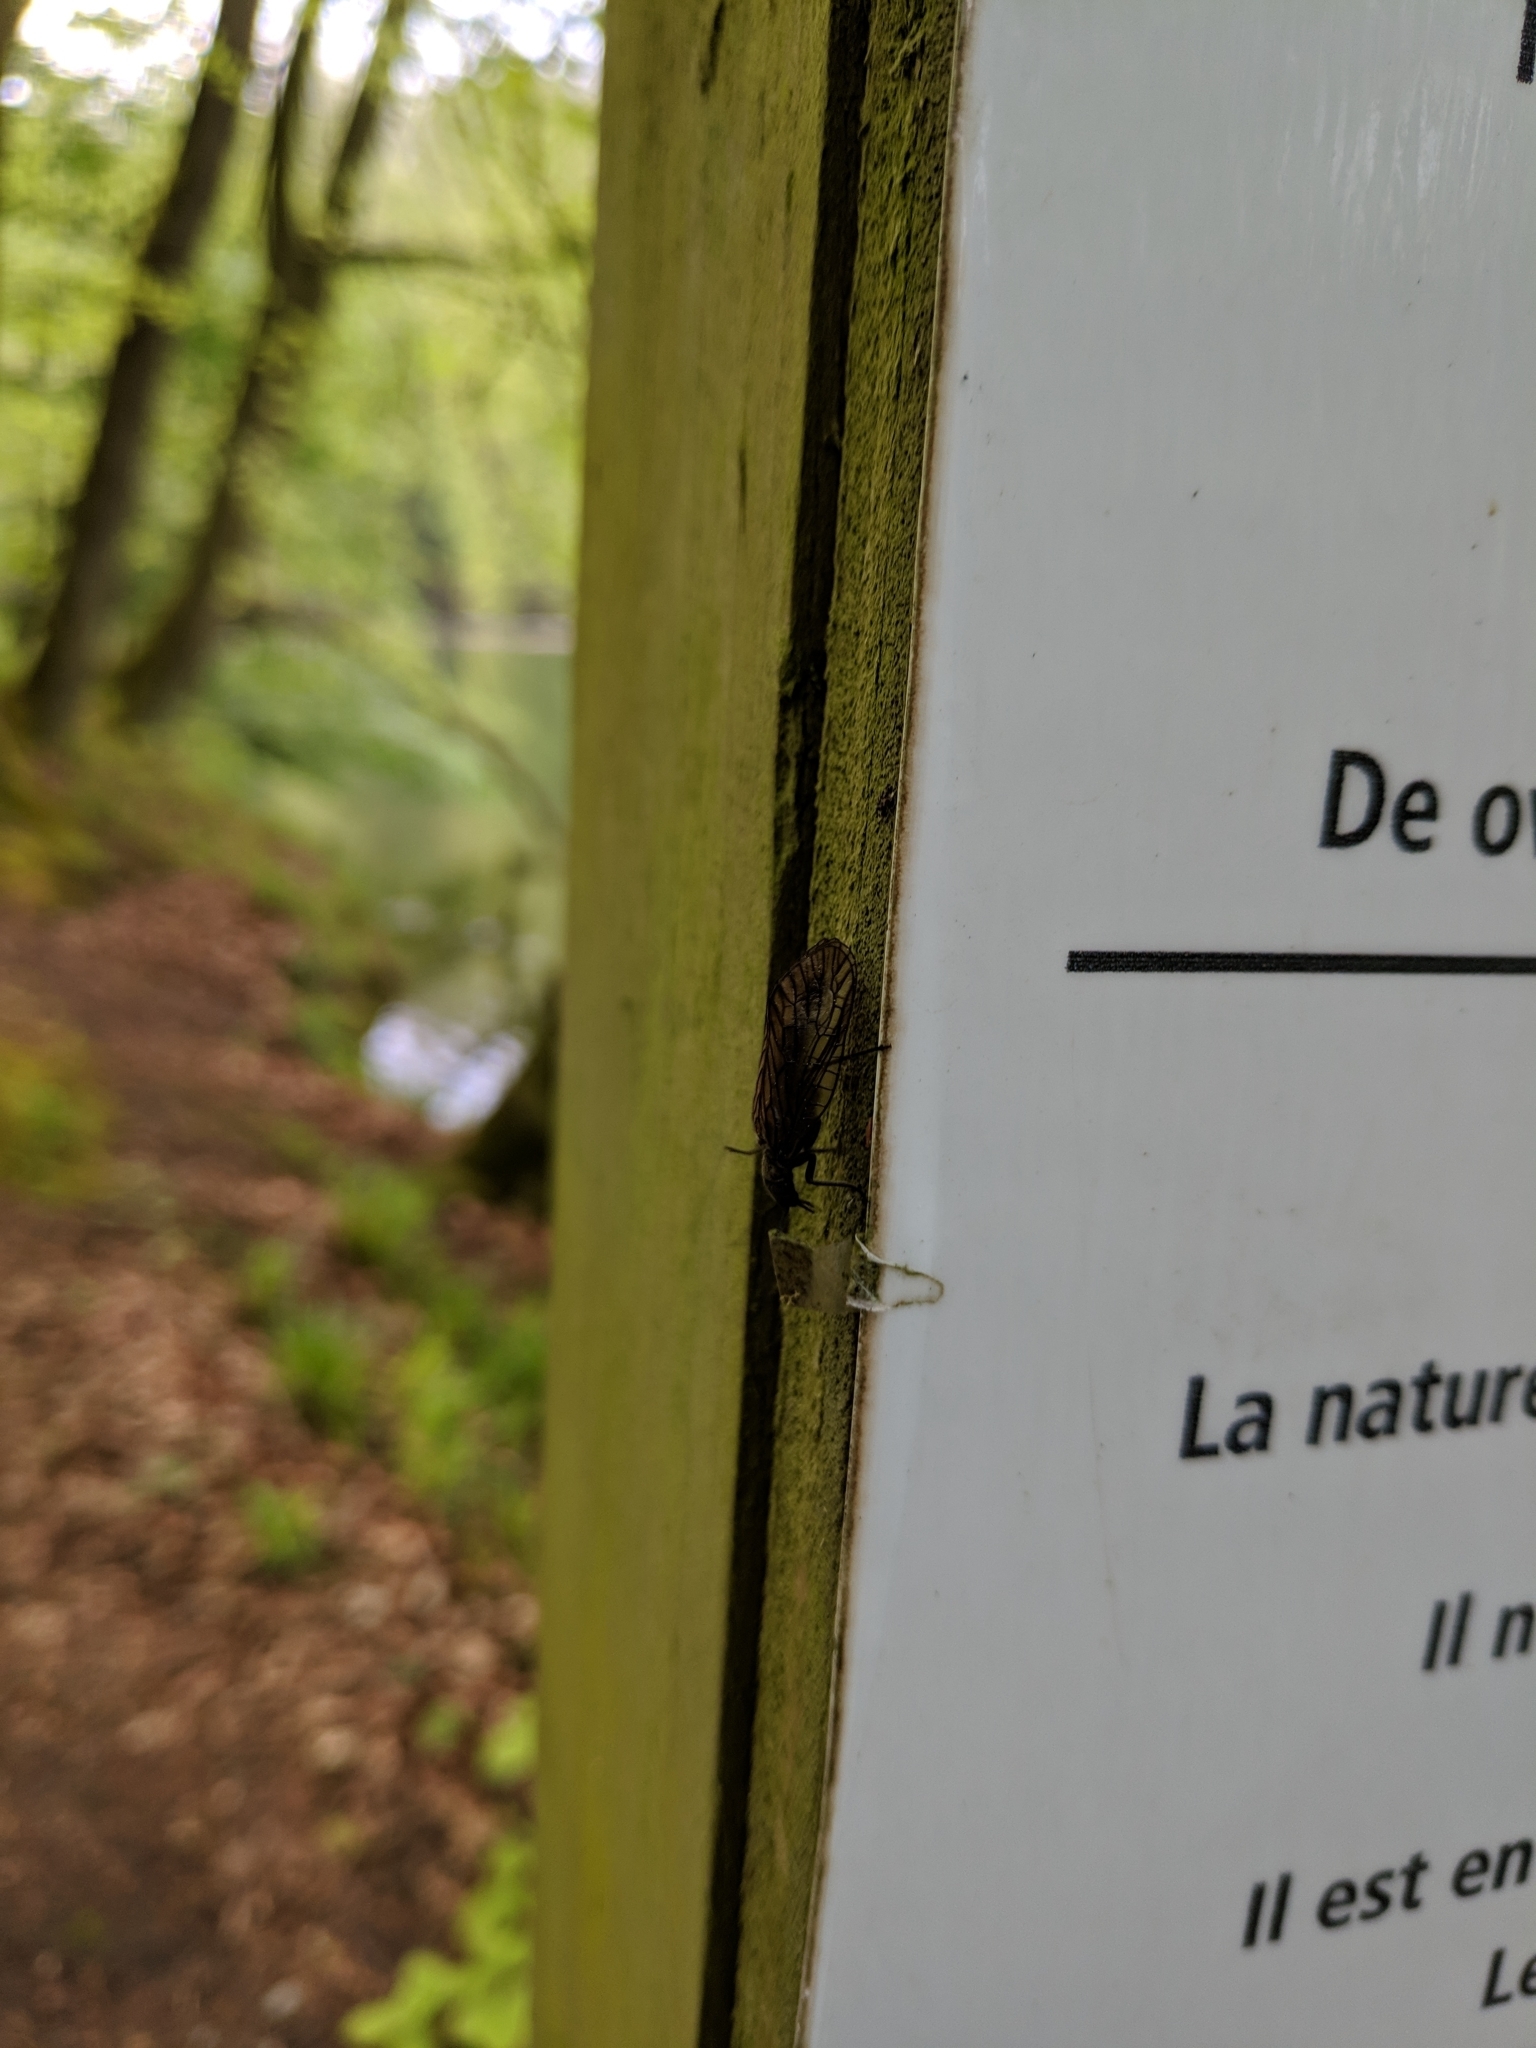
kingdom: Animalia
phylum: Arthropoda
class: Insecta
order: Megaloptera
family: Sialidae
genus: Sialis
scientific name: Sialis
